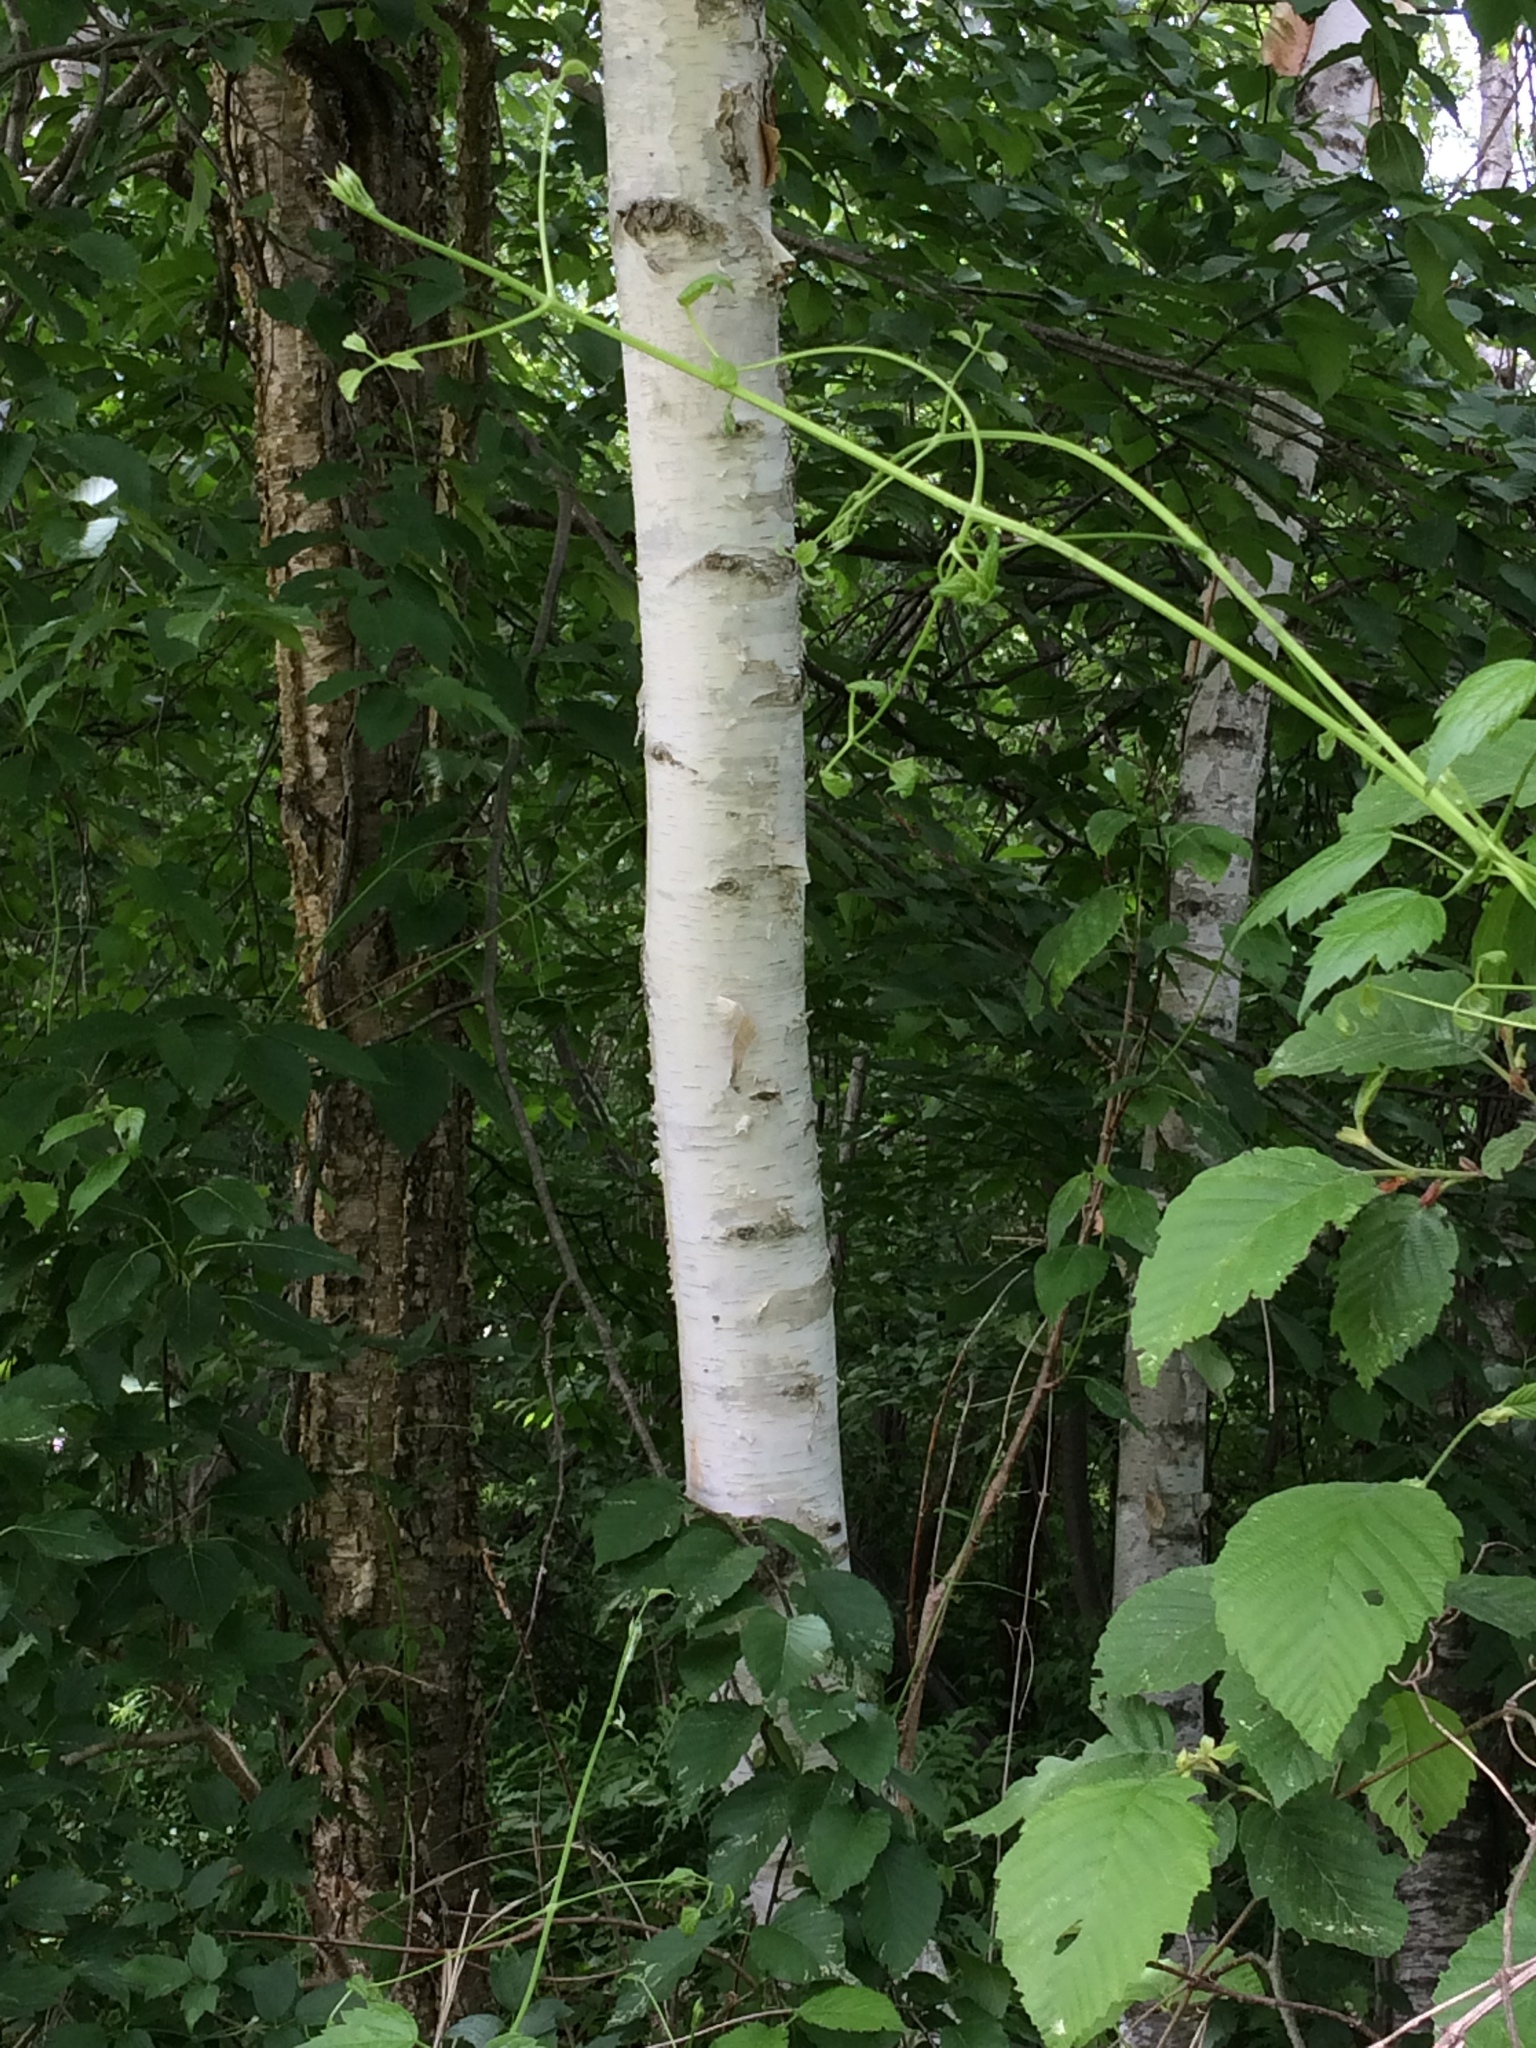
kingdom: Plantae
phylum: Tracheophyta
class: Magnoliopsida
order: Fagales
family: Betulaceae
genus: Betula
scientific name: Betula papyrifera
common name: Paper birch
